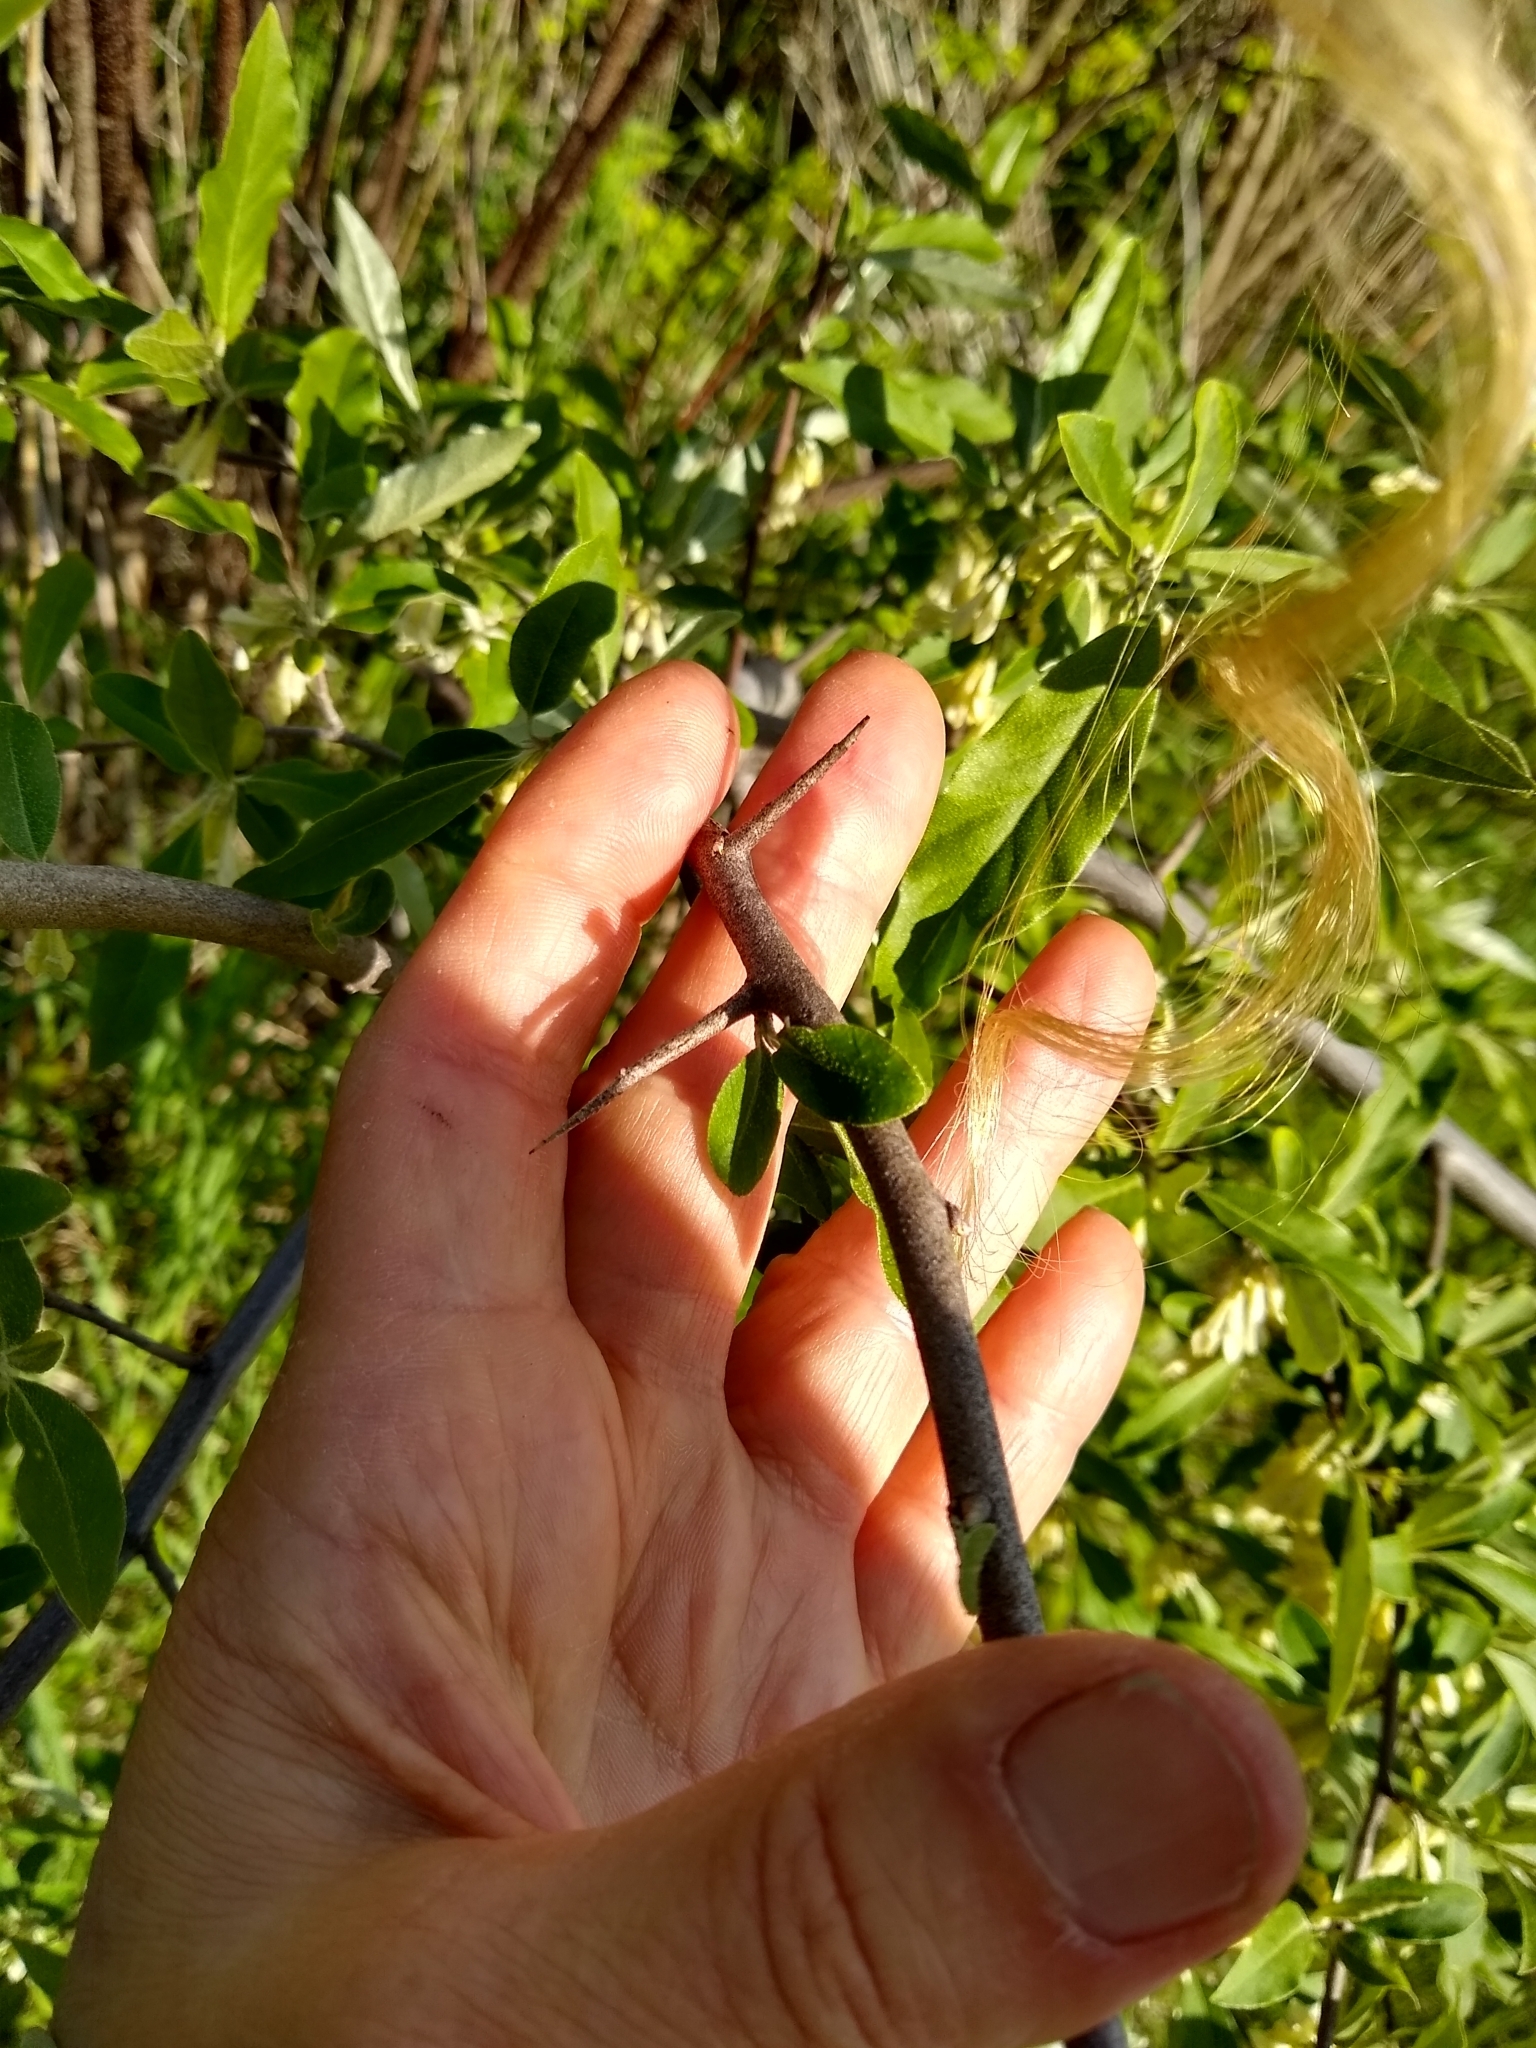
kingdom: Plantae
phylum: Tracheophyta
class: Magnoliopsida
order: Rosales
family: Elaeagnaceae
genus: Elaeagnus
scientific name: Elaeagnus umbellata
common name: Autumn olive
